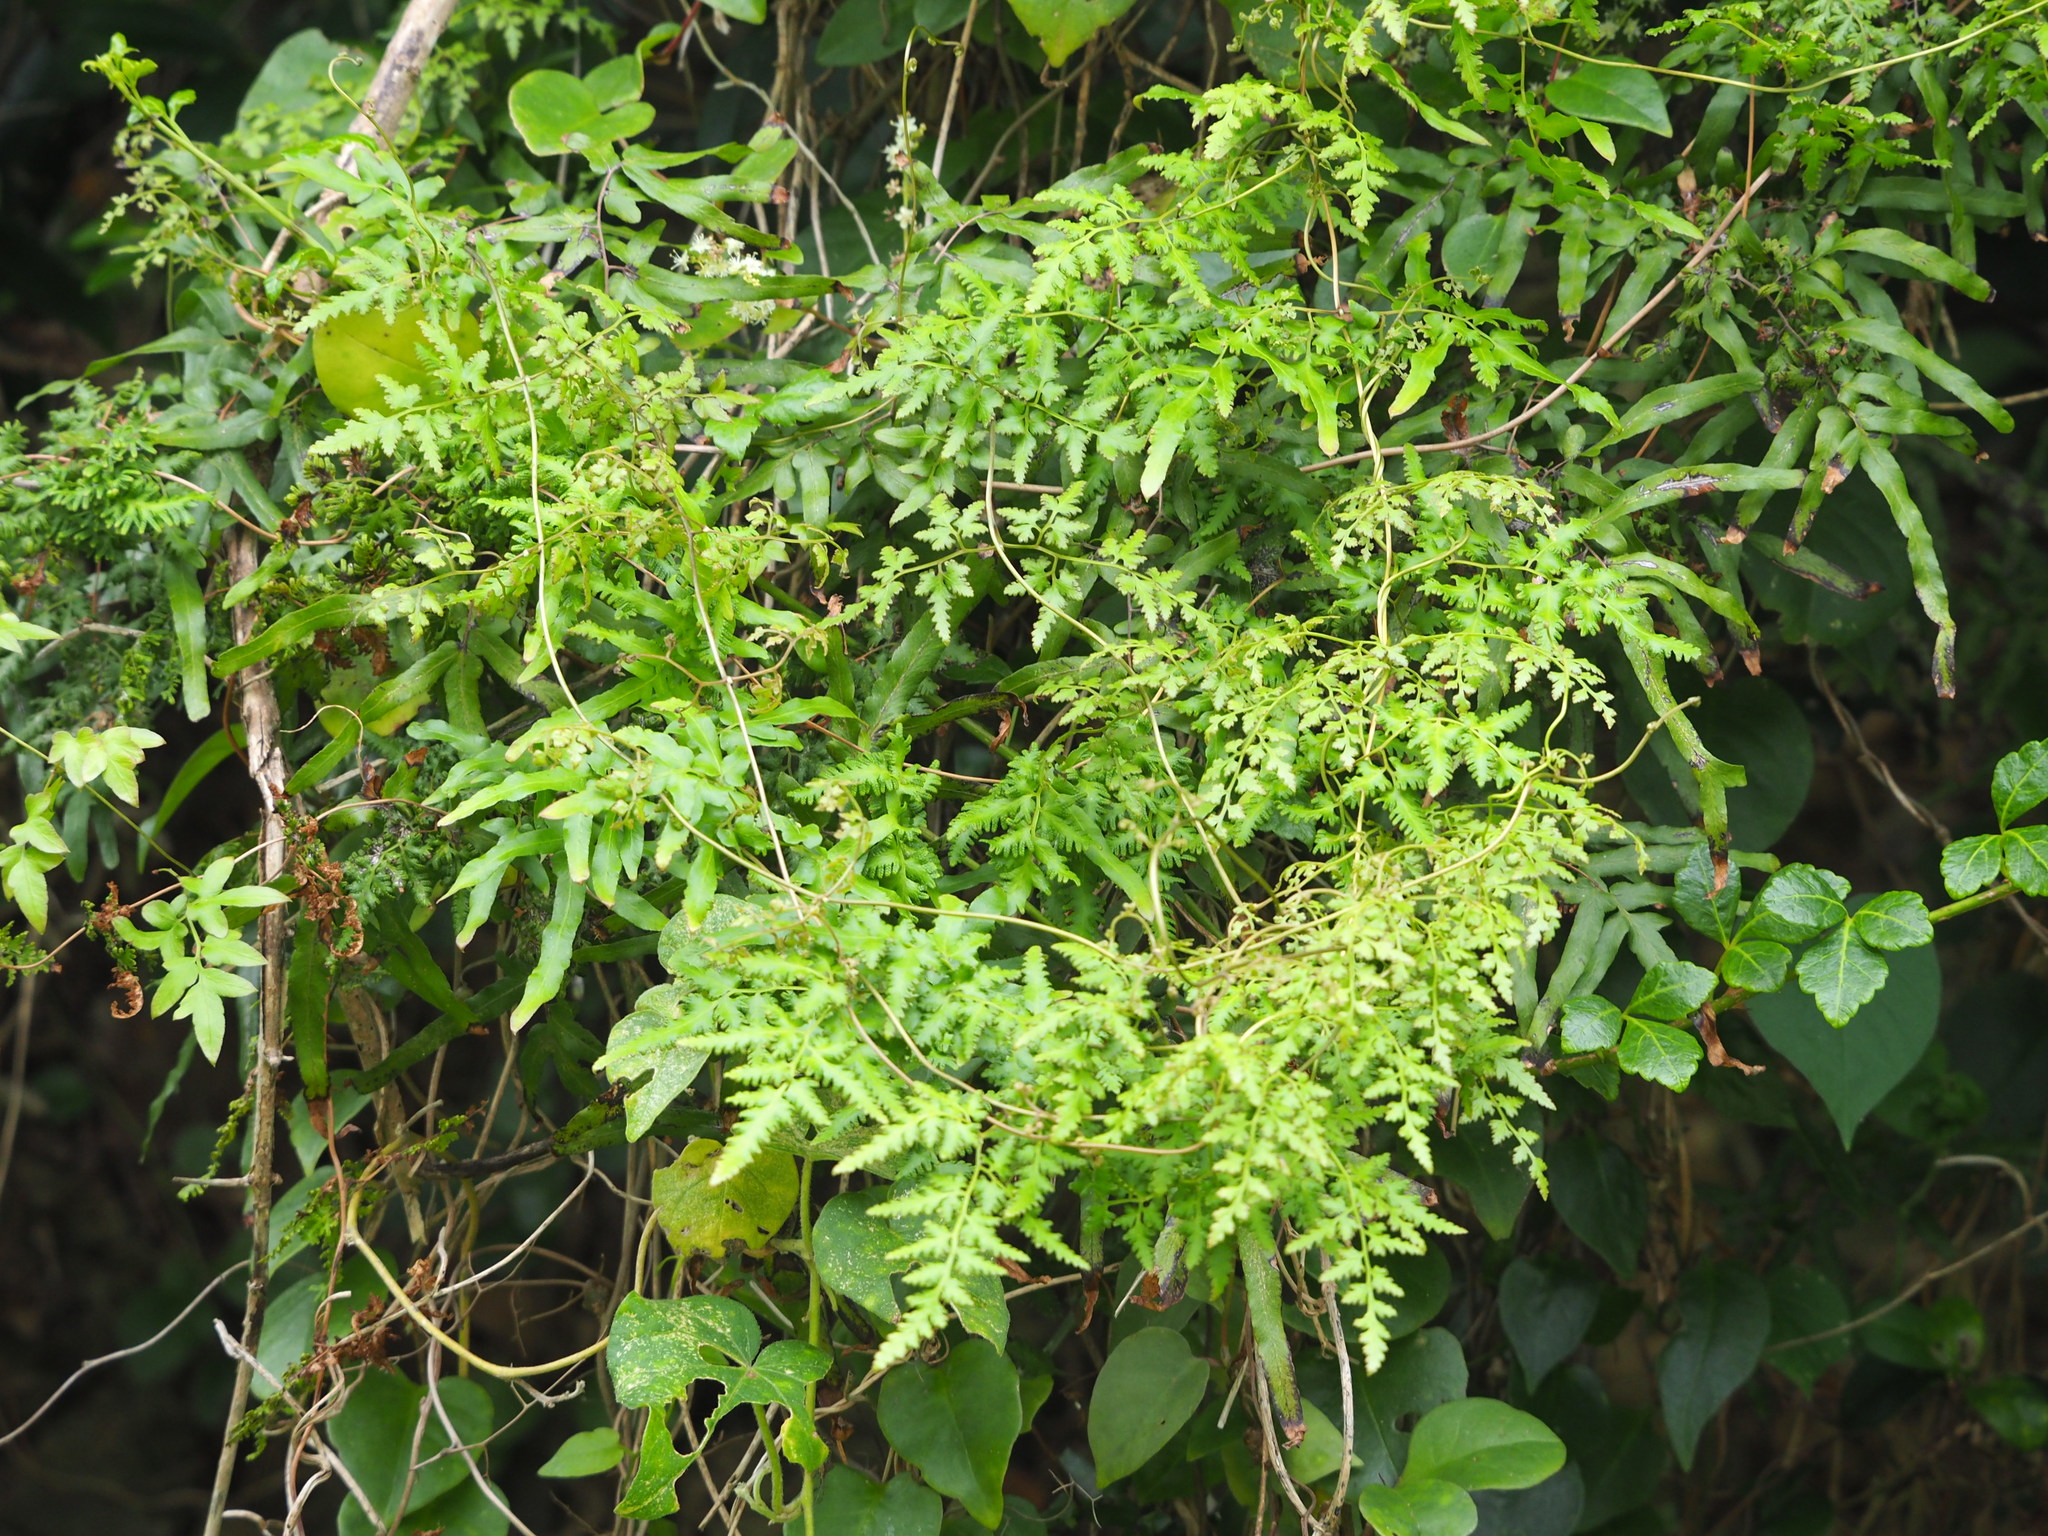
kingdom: Plantae
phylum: Tracheophyta
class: Polypodiopsida
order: Schizaeales
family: Lygodiaceae
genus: Lygodium
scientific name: Lygodium japonicum
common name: Japanese climbing fern
